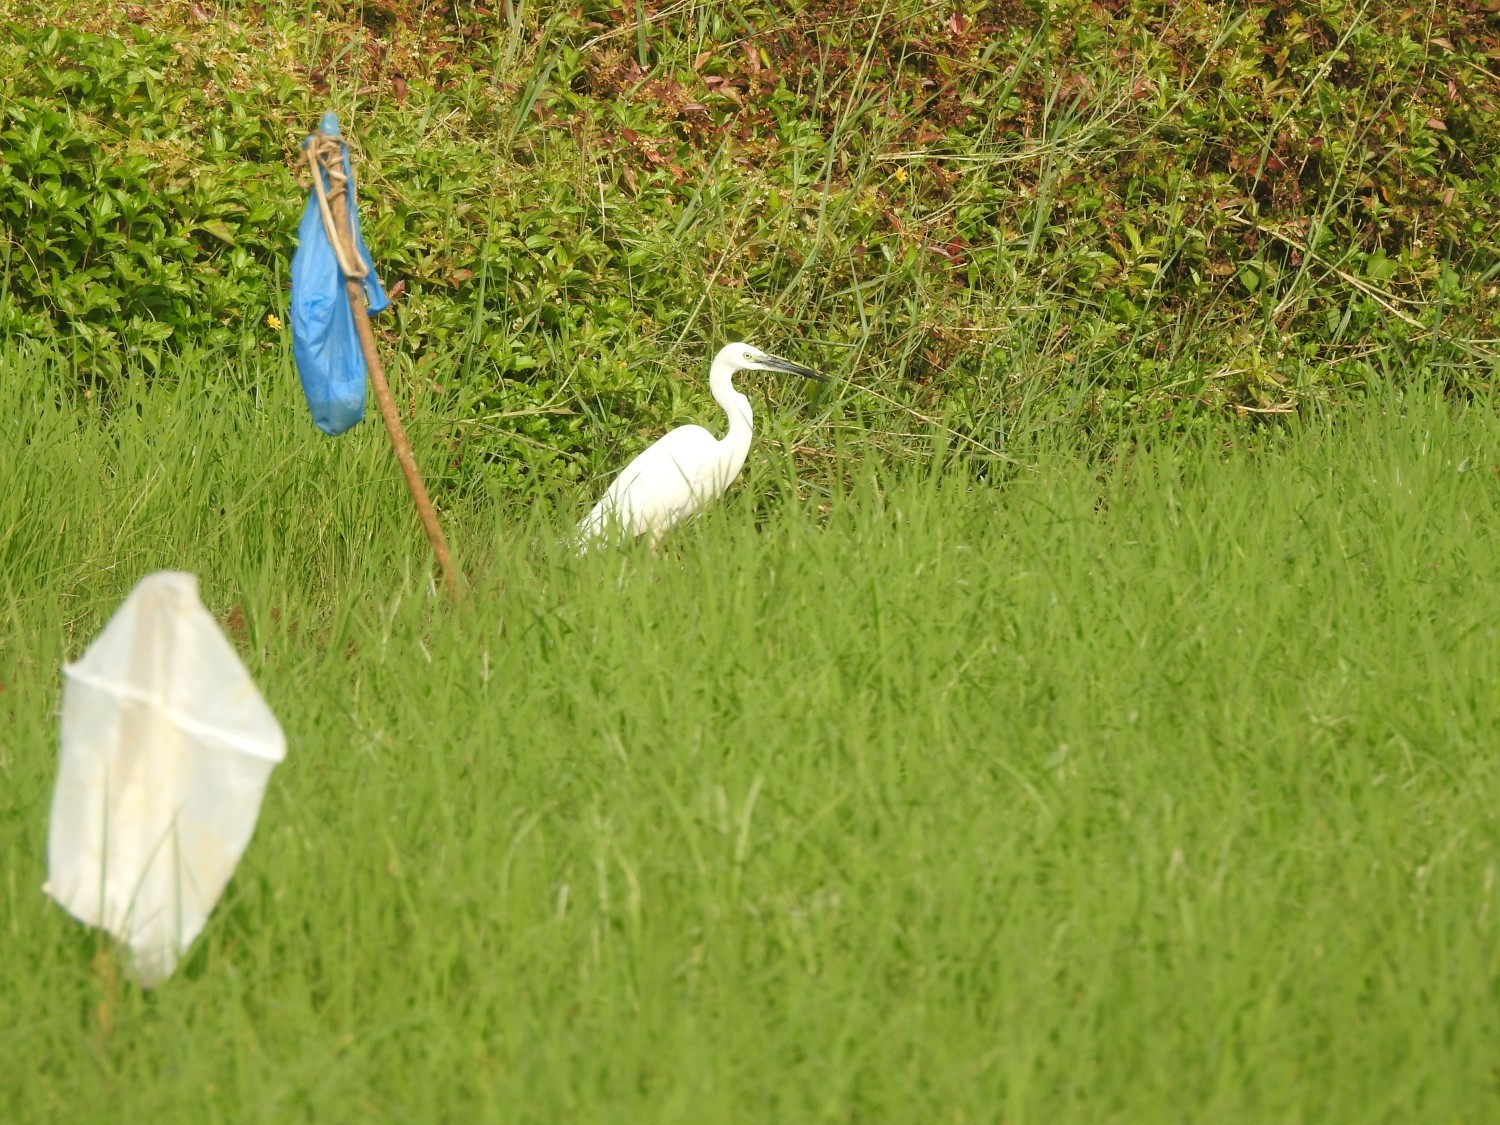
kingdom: Animalia
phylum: Chordata
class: Aves
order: Pelecaniformes
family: Ardeidae
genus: Egretta
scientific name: Egretta garzetta
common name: Little egret
